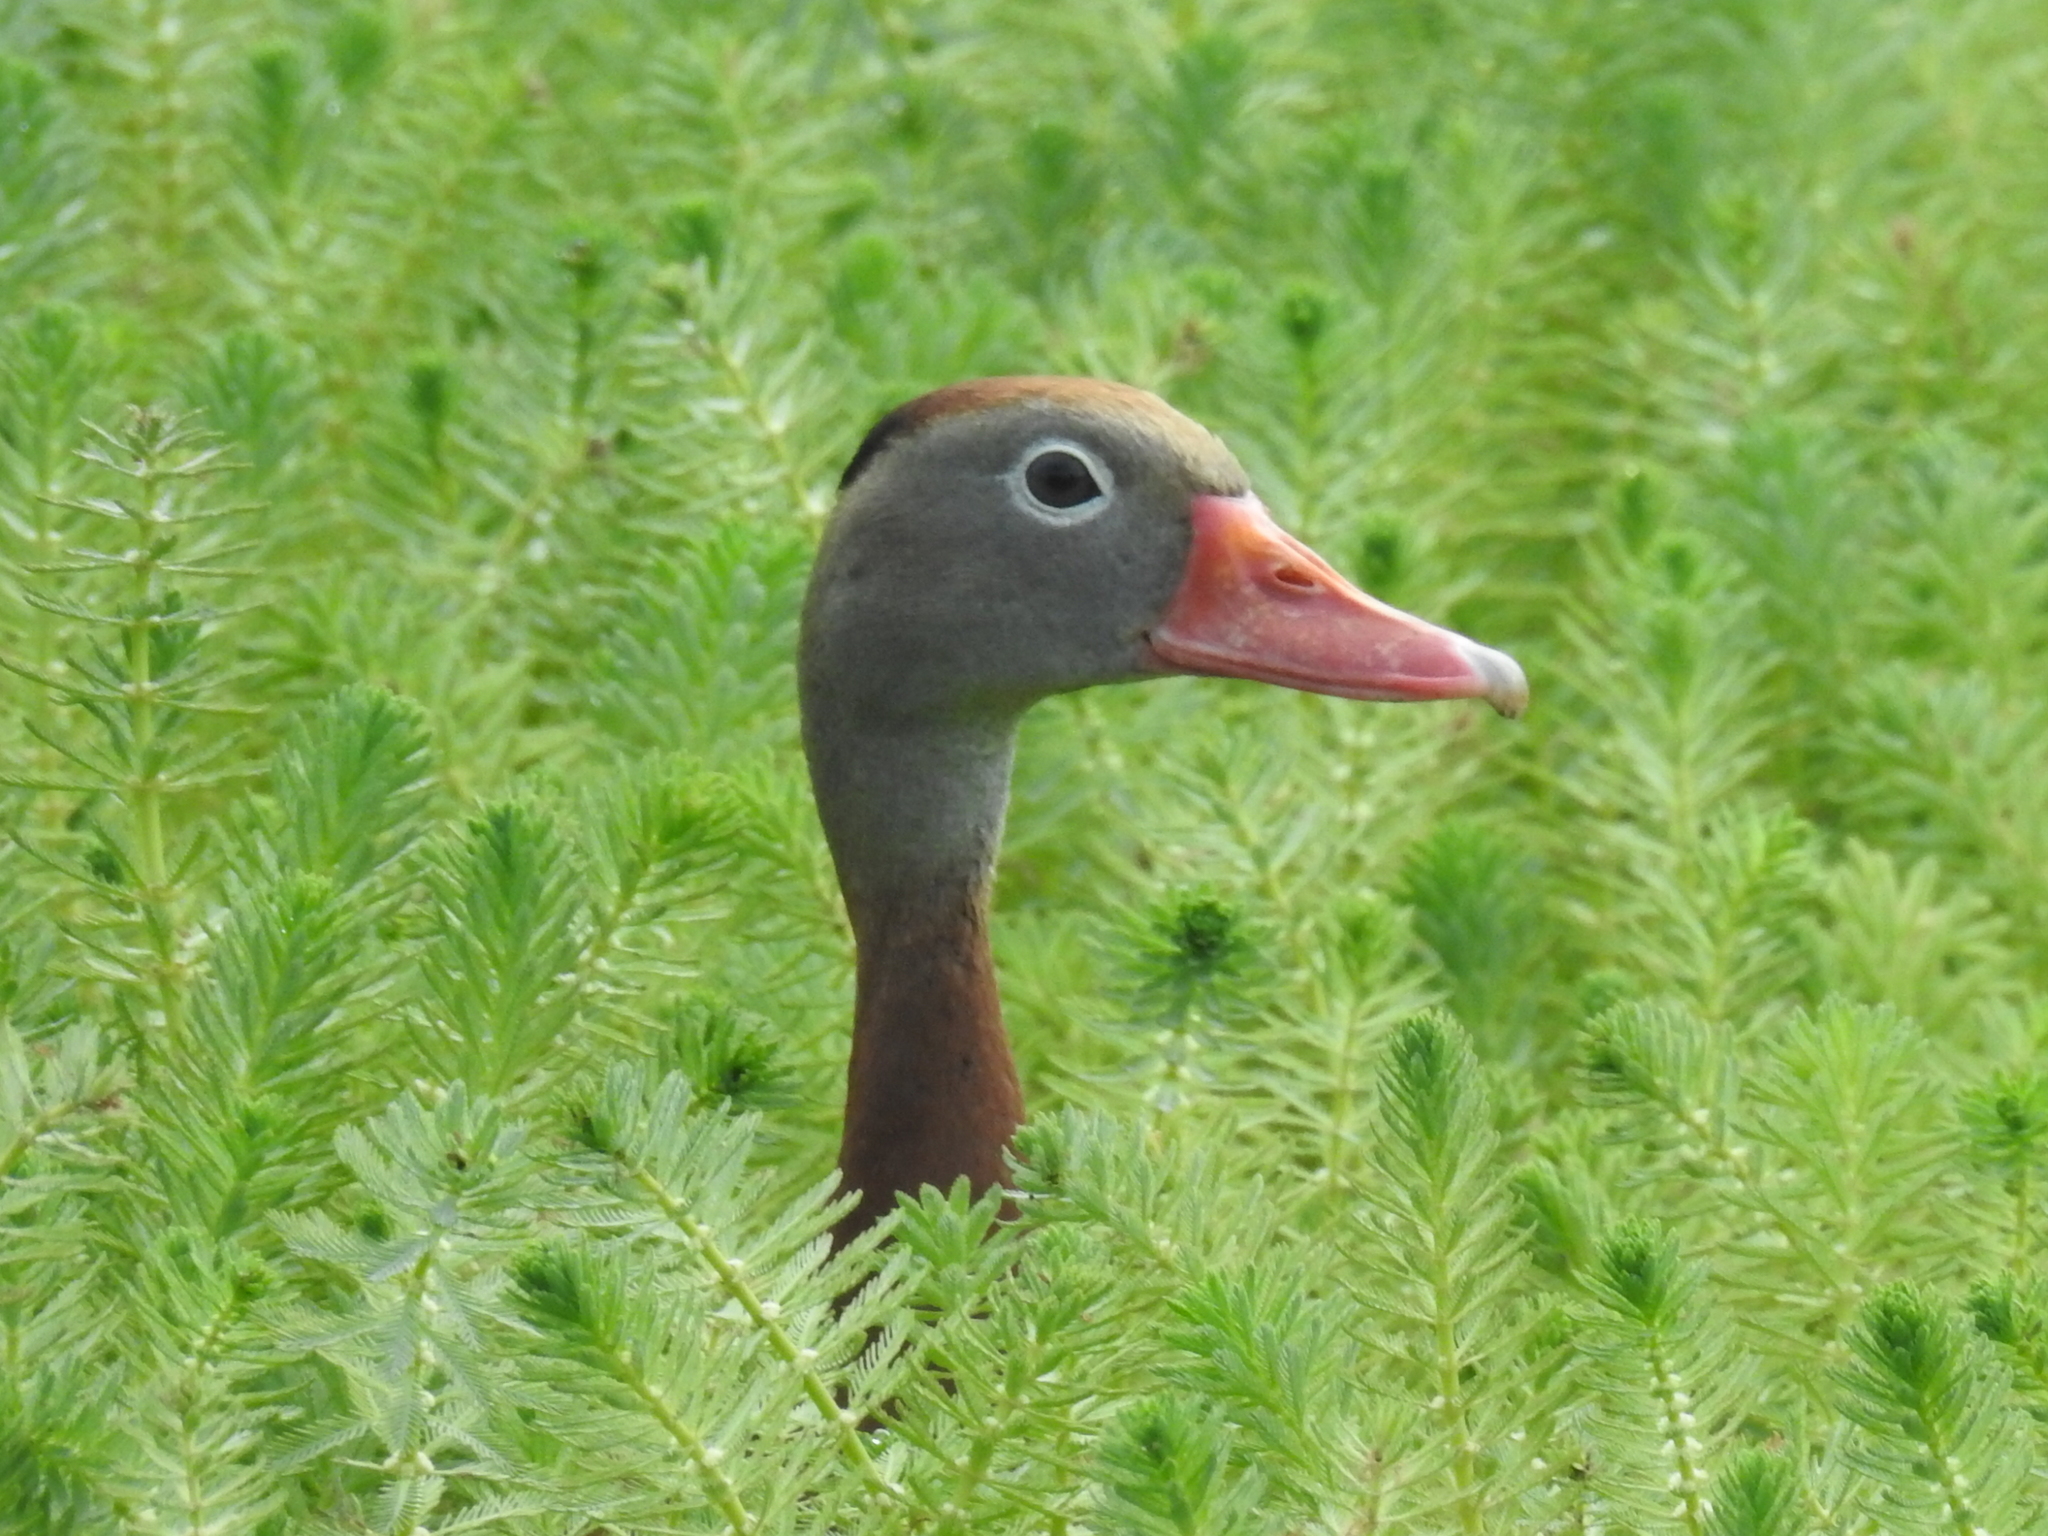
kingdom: Animalia
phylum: Chordata
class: Aves
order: Anseriformes
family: Anatidae
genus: Dendrocygna
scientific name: Dendrocygna autumnalis
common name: Black-bellied whistling duck
